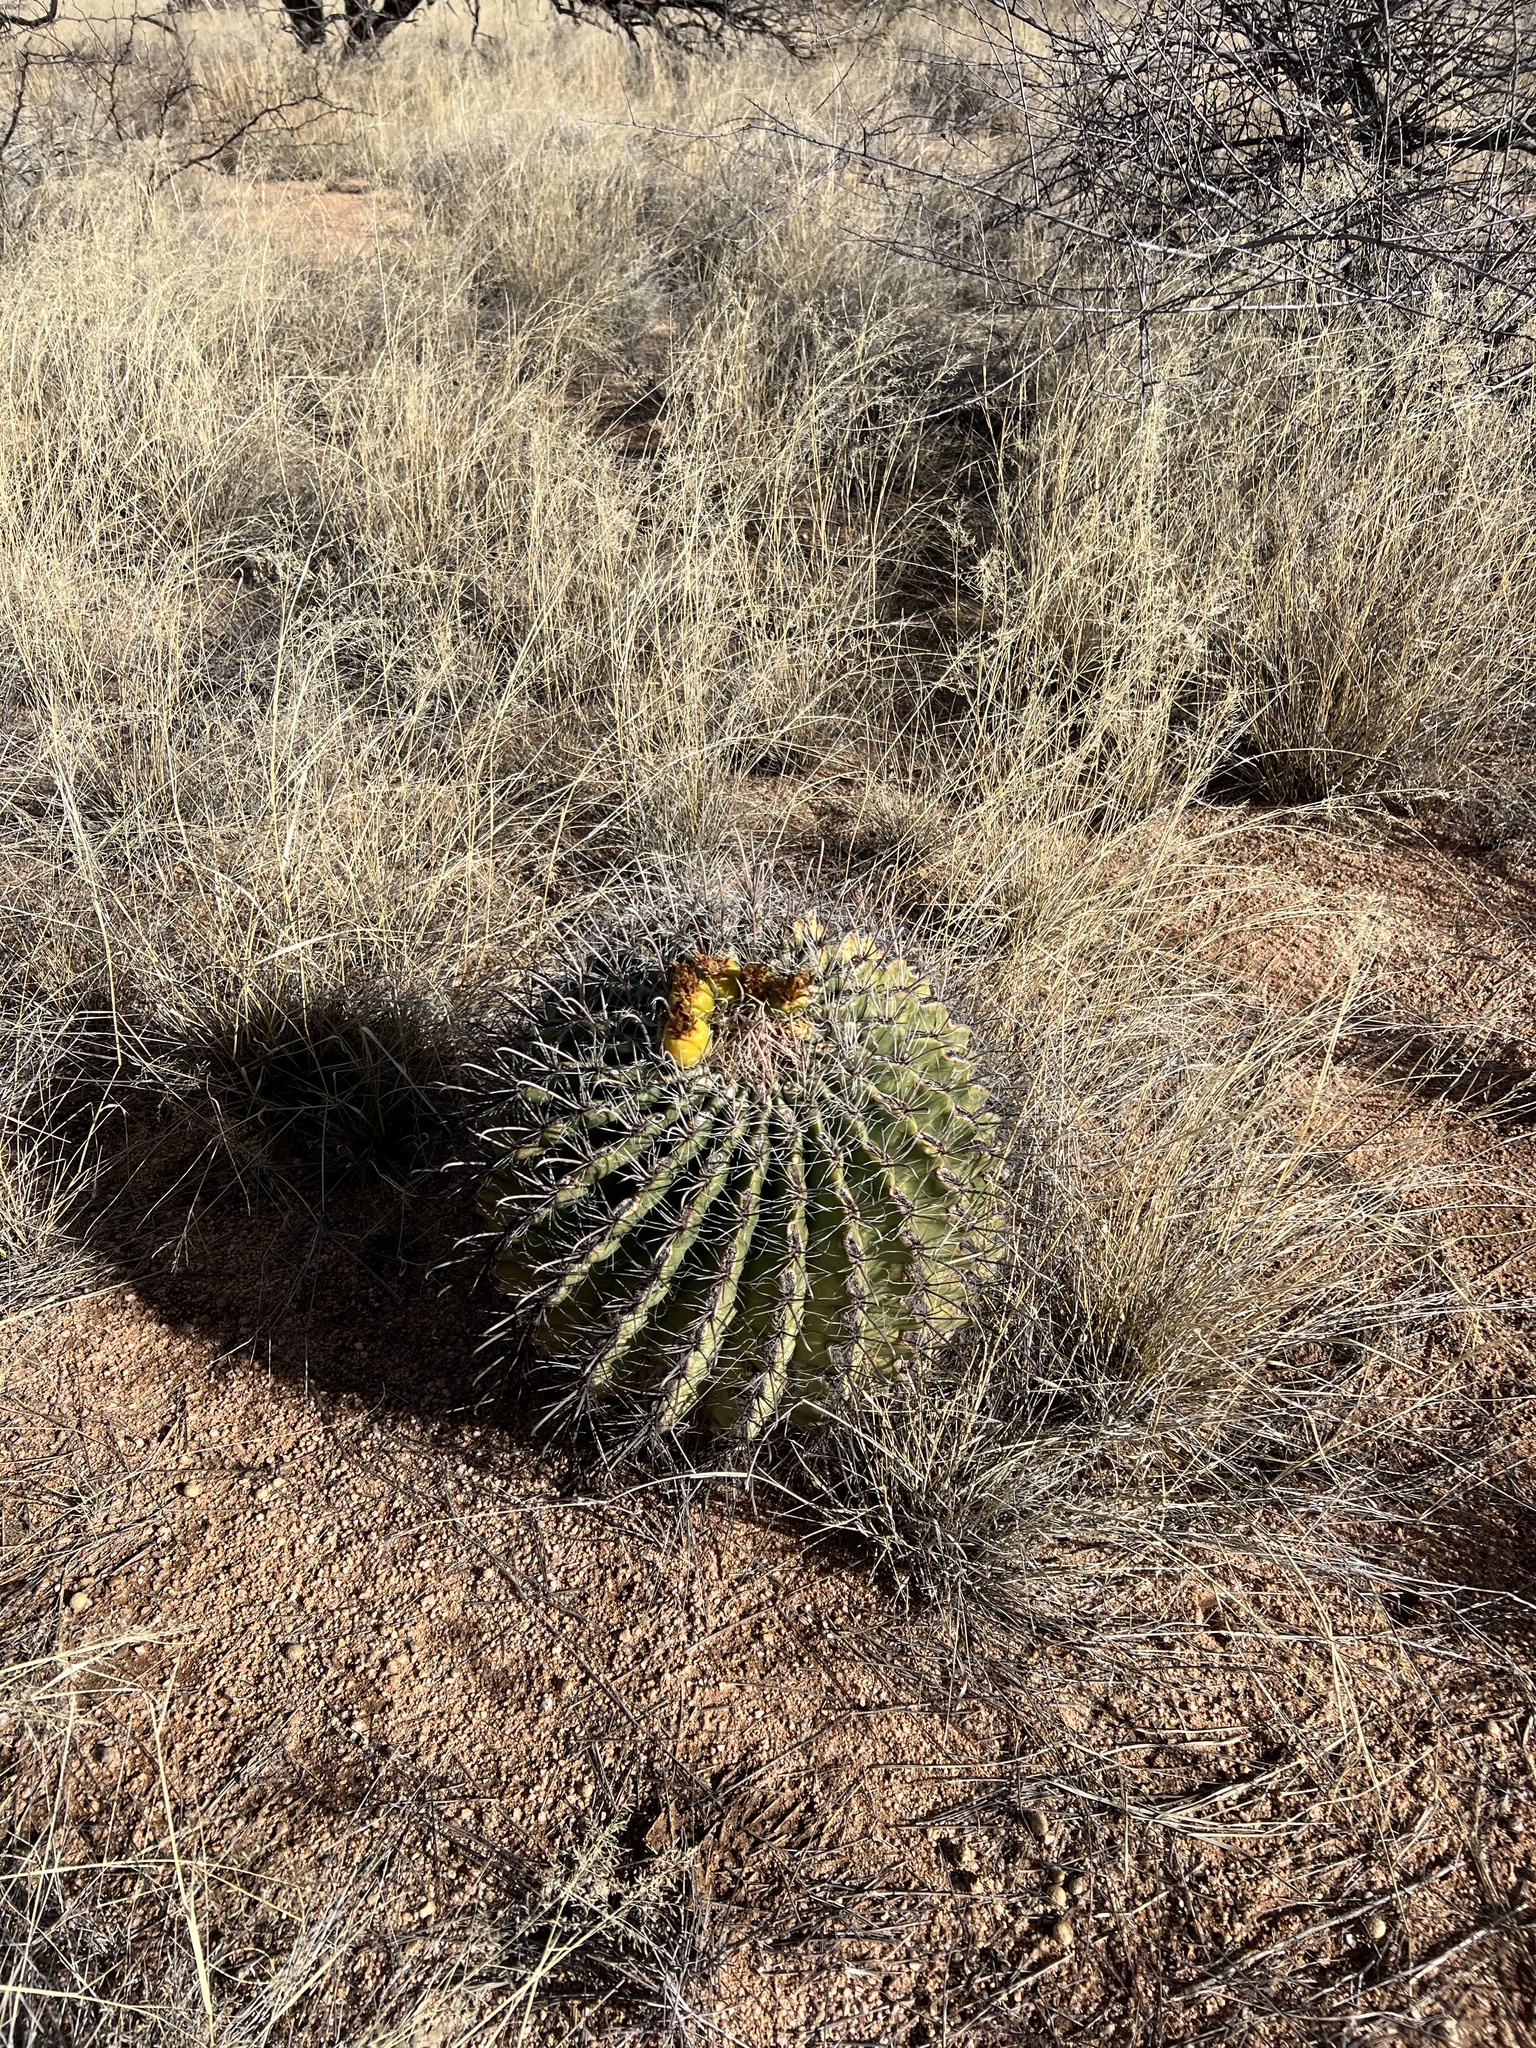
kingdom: Plantae
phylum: Tracheophyta
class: Magnoliopsida
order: Caryophyllales
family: Cactaceae
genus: Ferocactus
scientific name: Ferocactus wislizeni
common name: Candy barrel cactus
